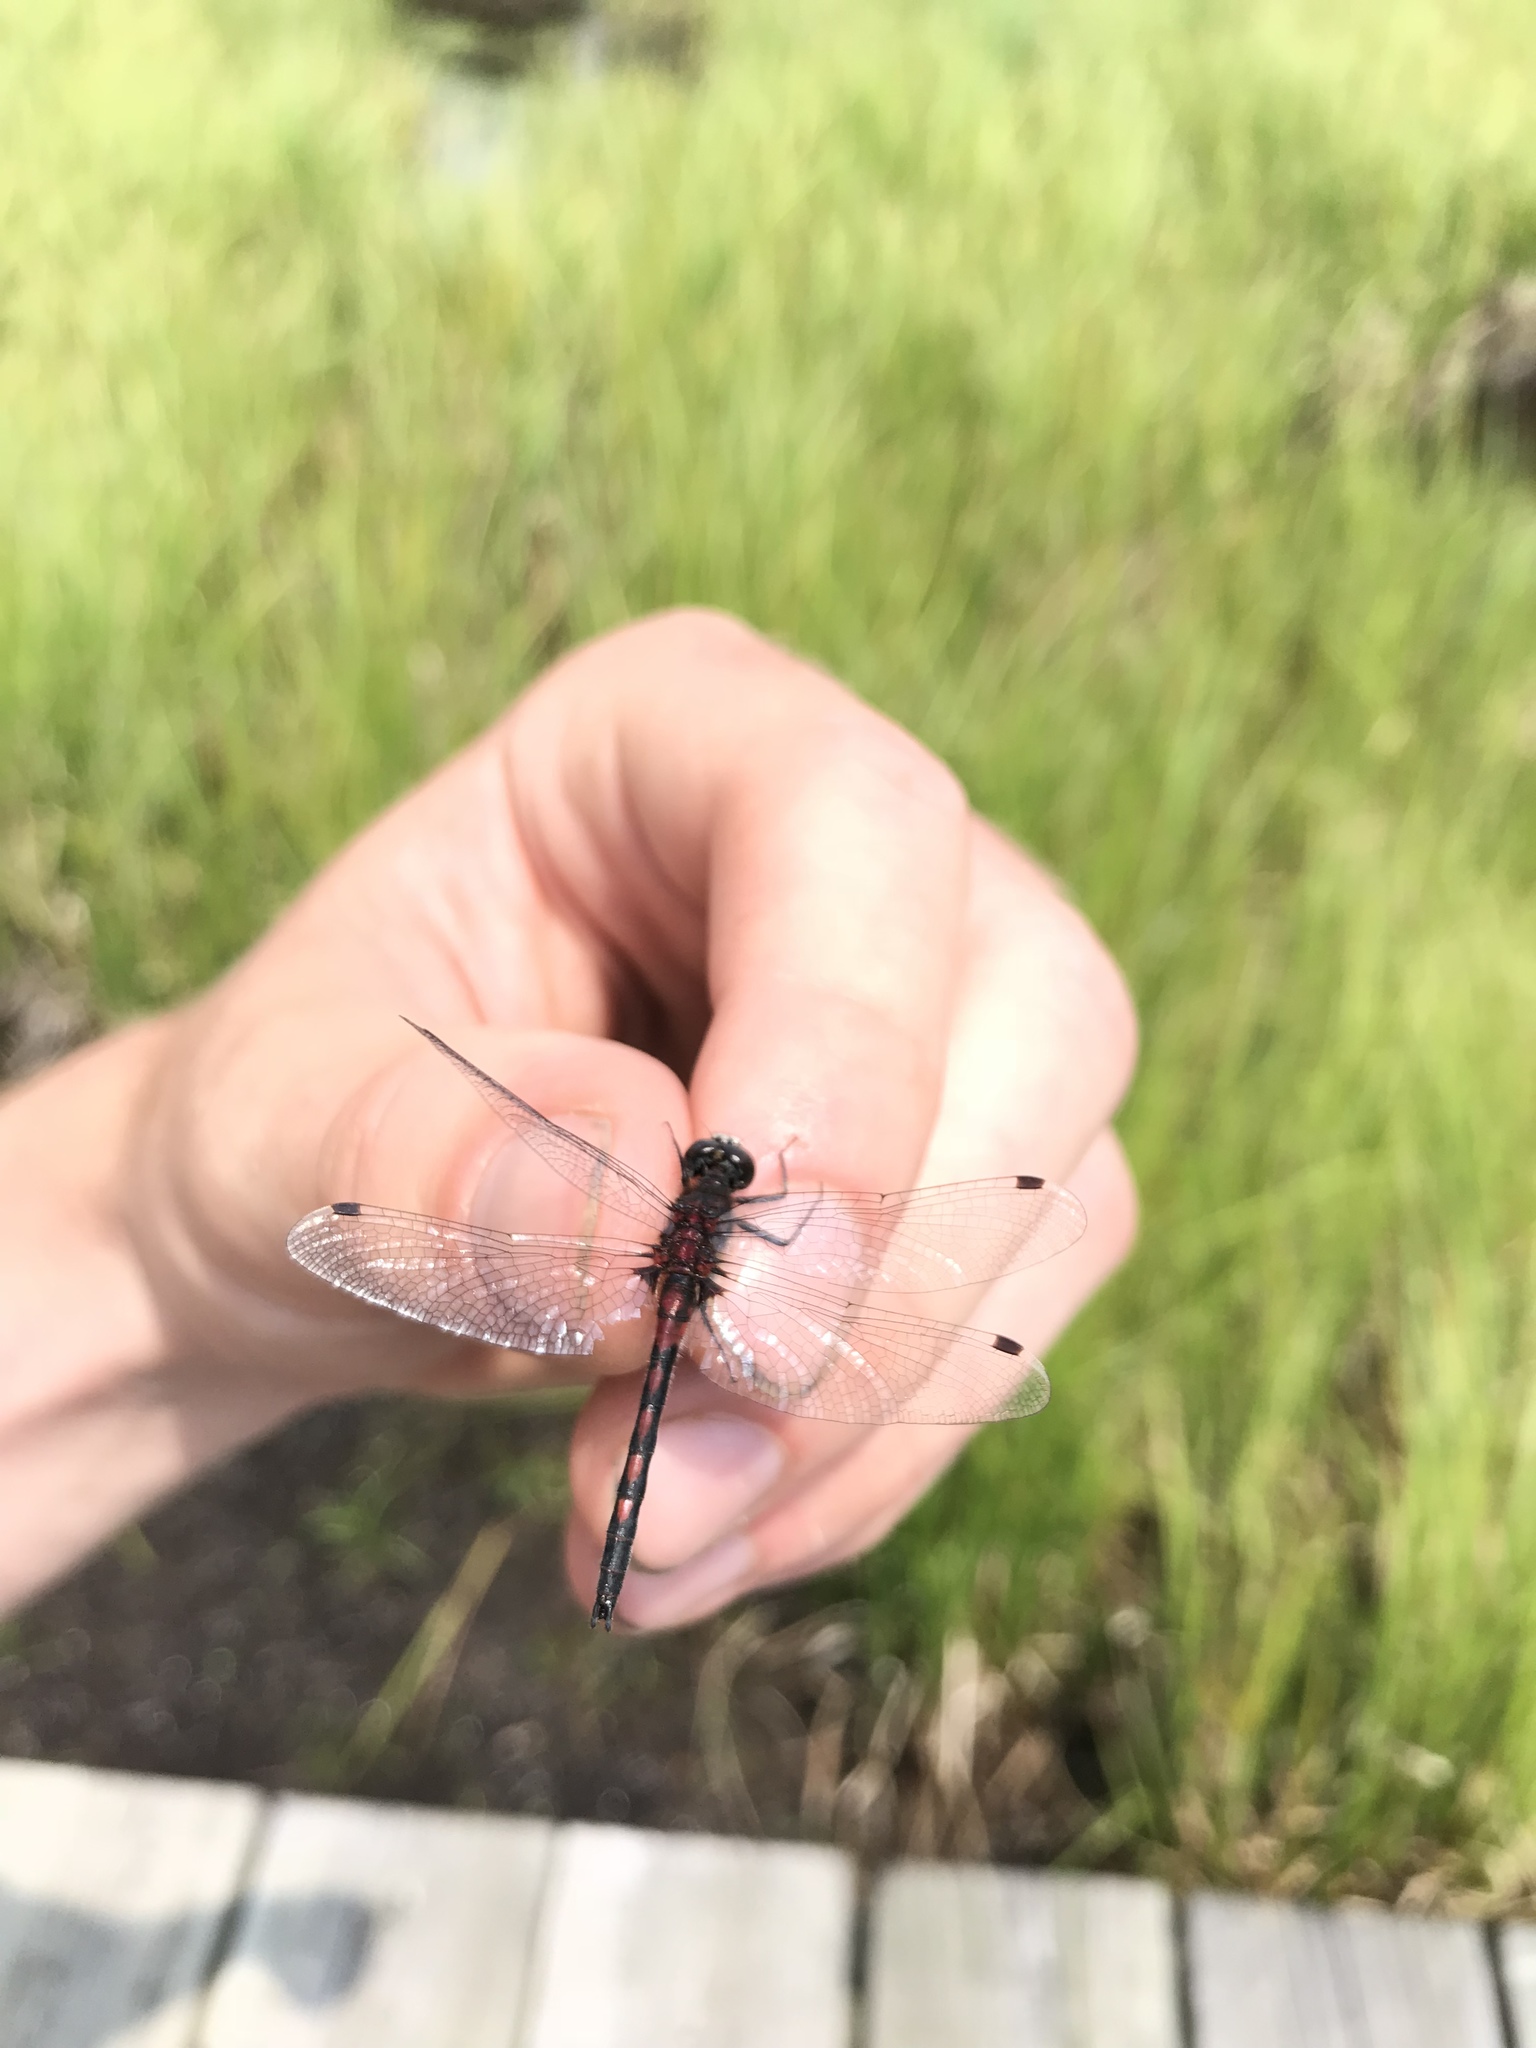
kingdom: Animalia
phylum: Arthropoda
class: Insecta
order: Odonata
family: Libellulidae
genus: Leucorrhinia
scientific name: Leucorrhinia hudsonica
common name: Hudsonian whiteface
